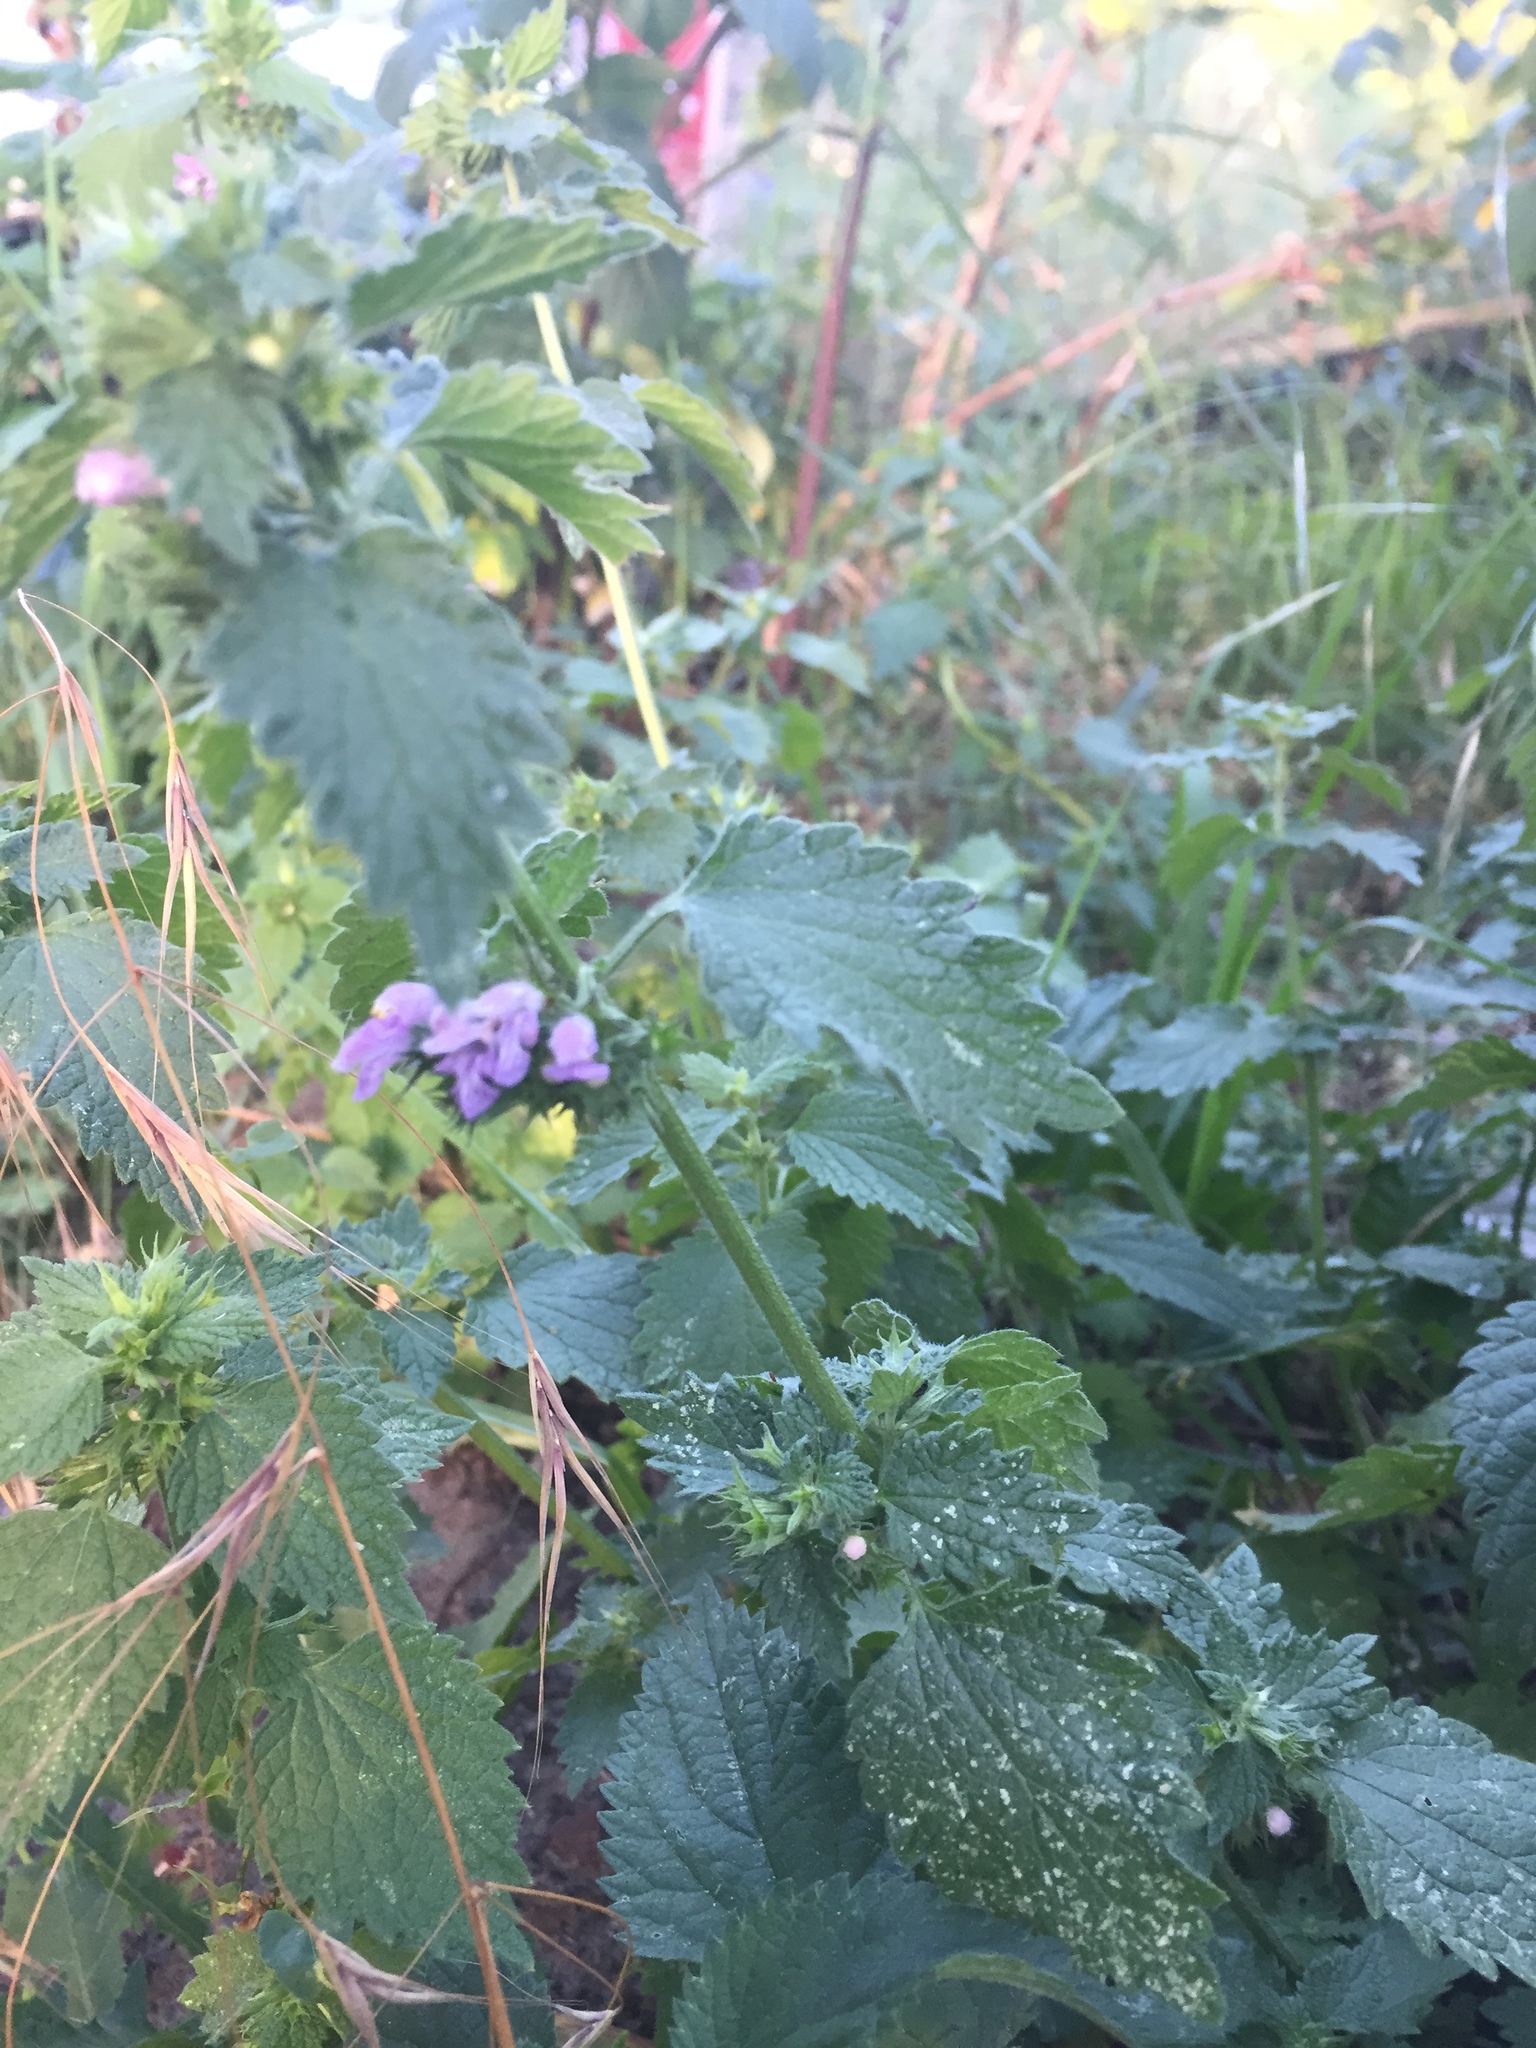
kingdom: Plantae
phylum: Tracheophyta
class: Magnoliopsida
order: Lamiales
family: Lamiaceae
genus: Ballota
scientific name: Ballota nigra
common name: Black horehound
